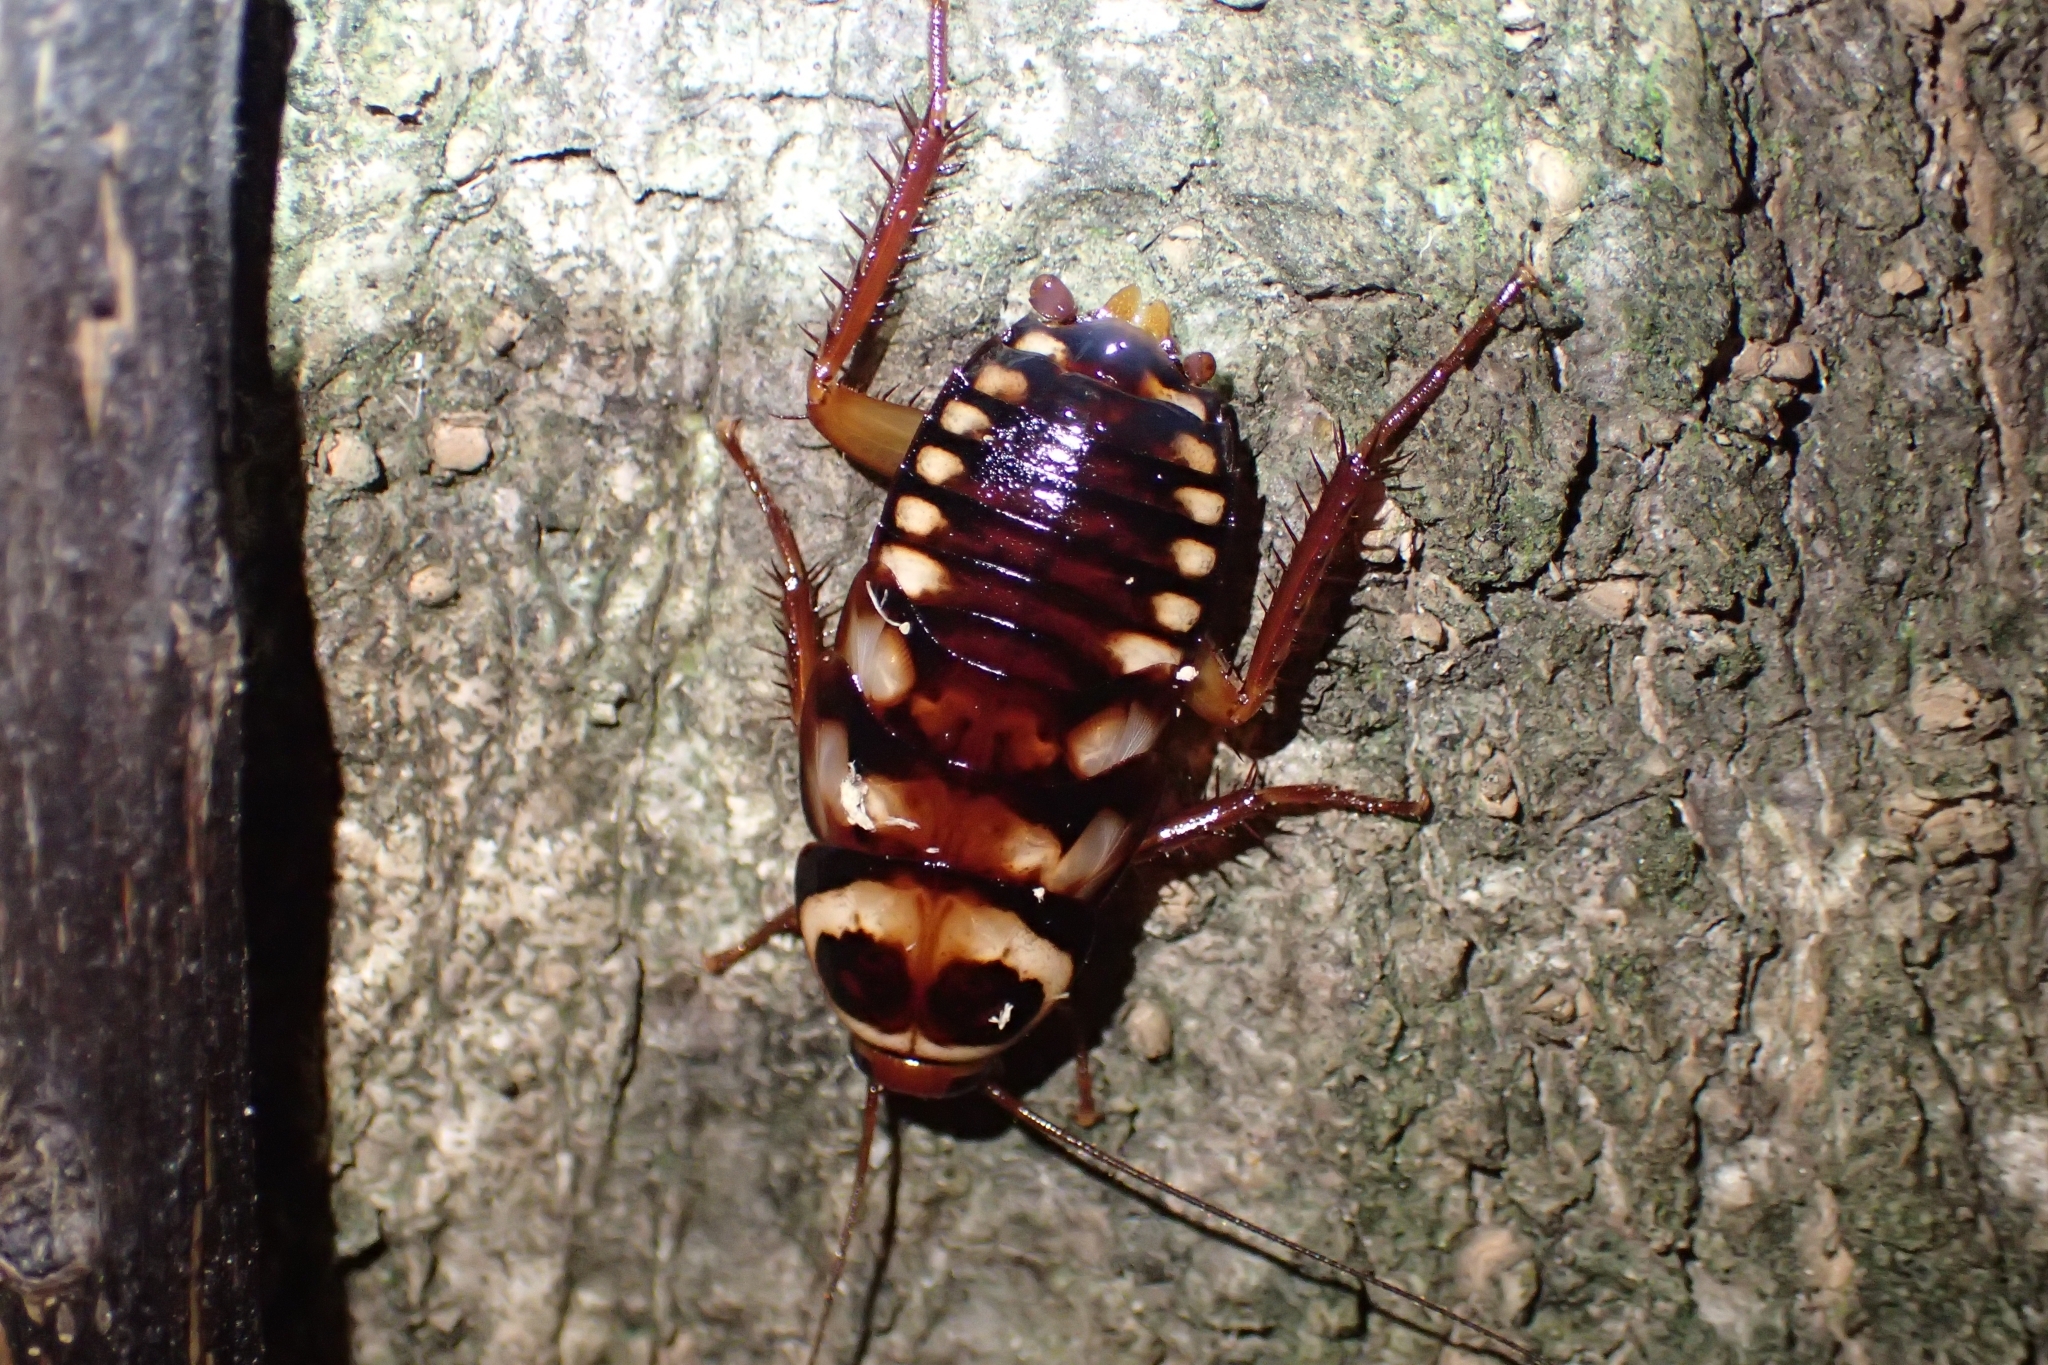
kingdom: Animalia
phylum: Arthropoda
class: Insecta
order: Blattodea
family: Blattidae
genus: Periplaneta
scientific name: Periplaneta australasiae
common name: Australian cockroach
